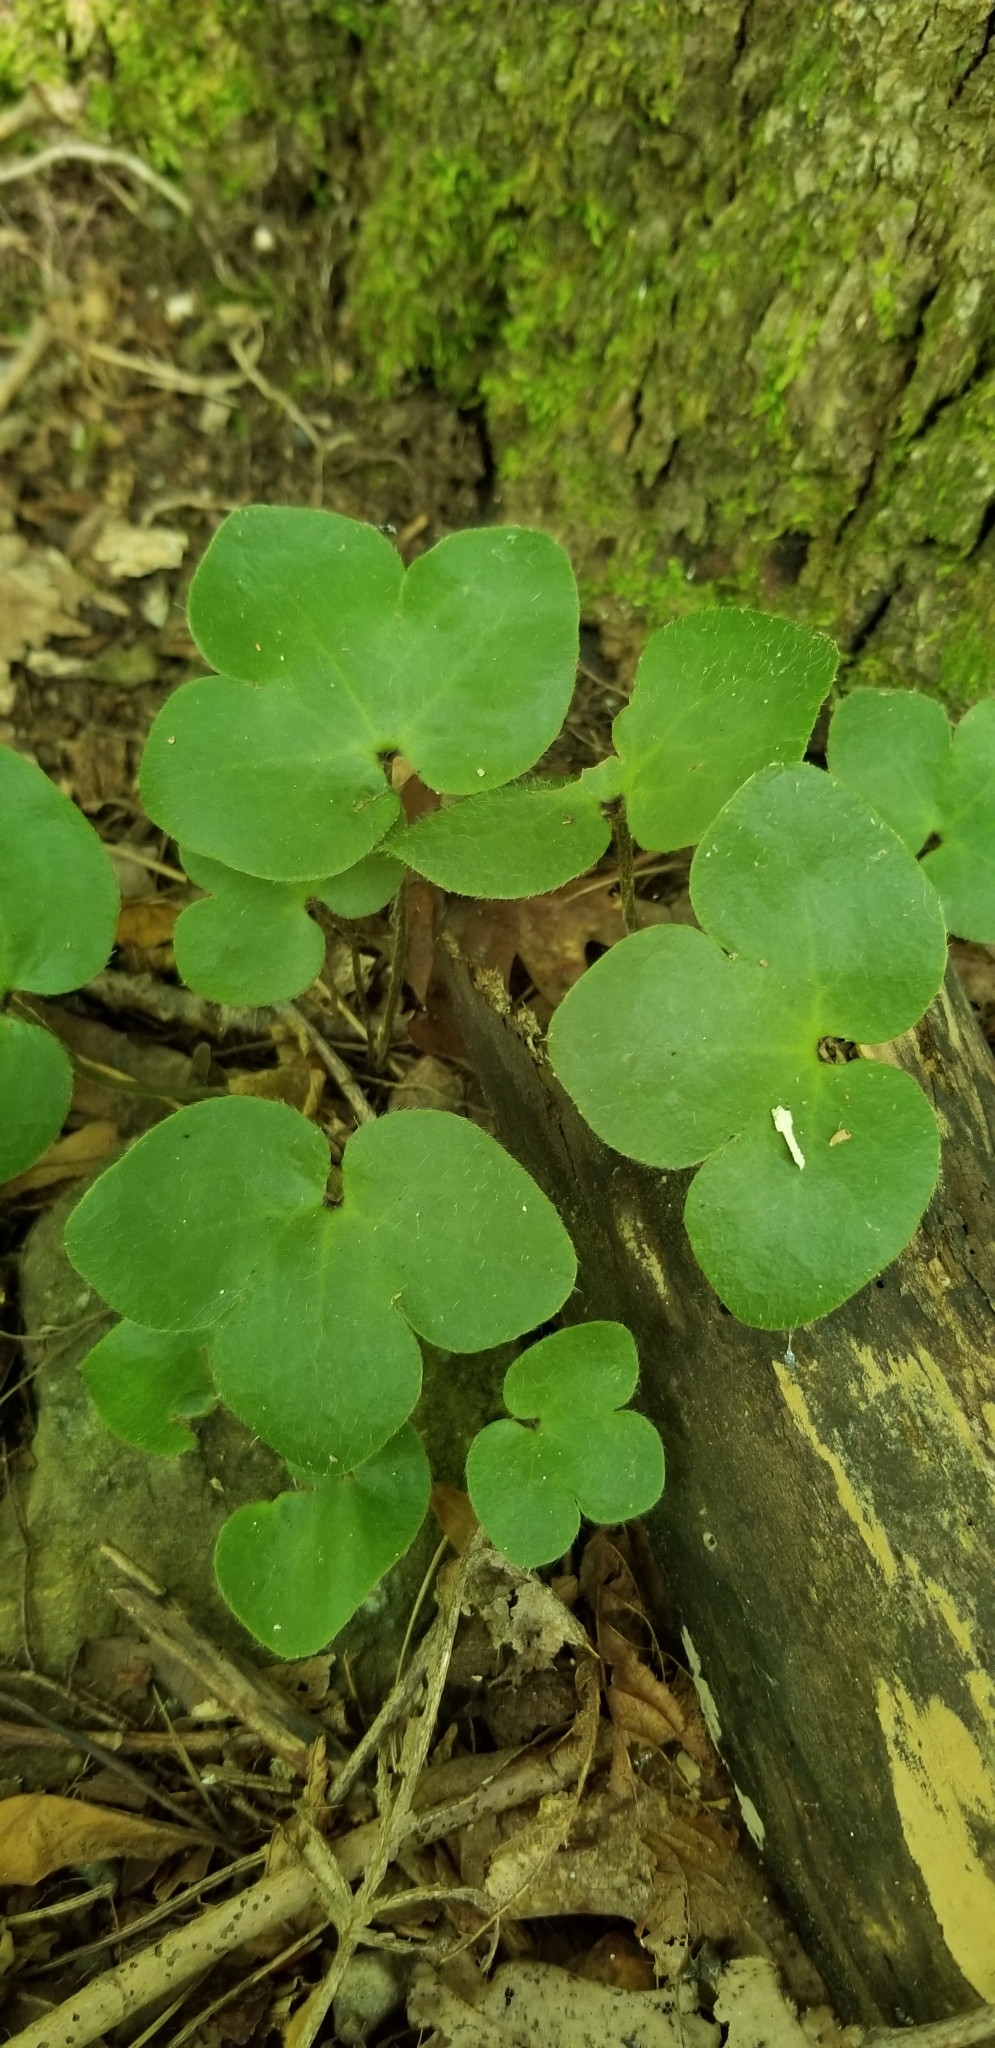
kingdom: Plantae
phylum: Tracheophyta
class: Magnoliopsida
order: Ranunculales
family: Ranunculaceae
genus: Hepatica
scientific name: Hepatica americana
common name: American hepatica
